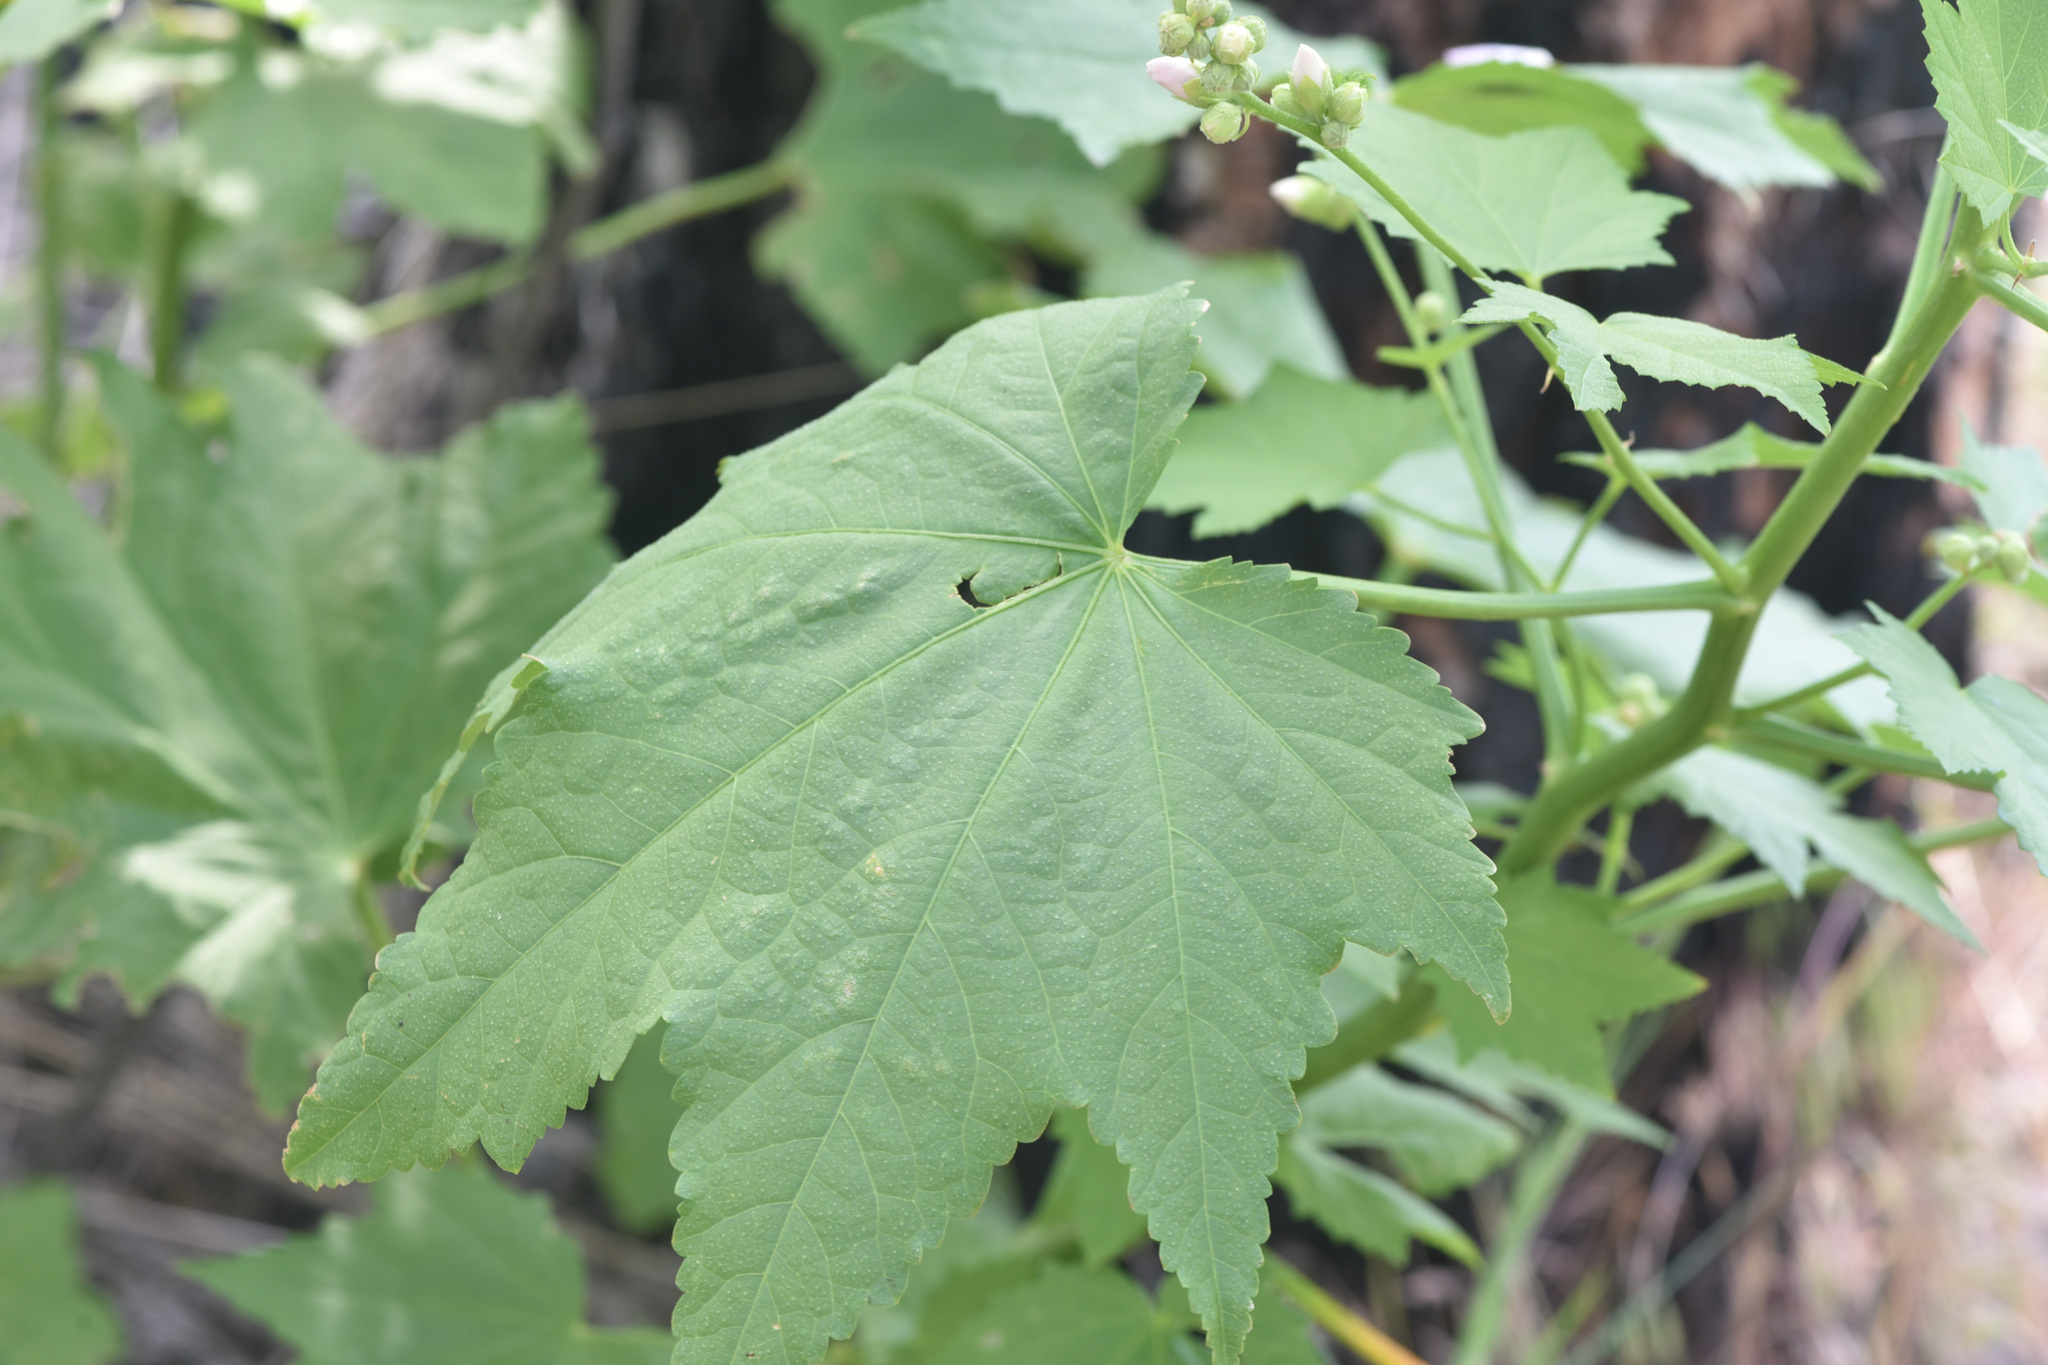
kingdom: Plantae
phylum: Tracheophyta
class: Magnoliopsida
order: Malvales
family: Malvaceae
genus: Iliamna
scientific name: Iliamna rivularis
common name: Wild hollyhock
